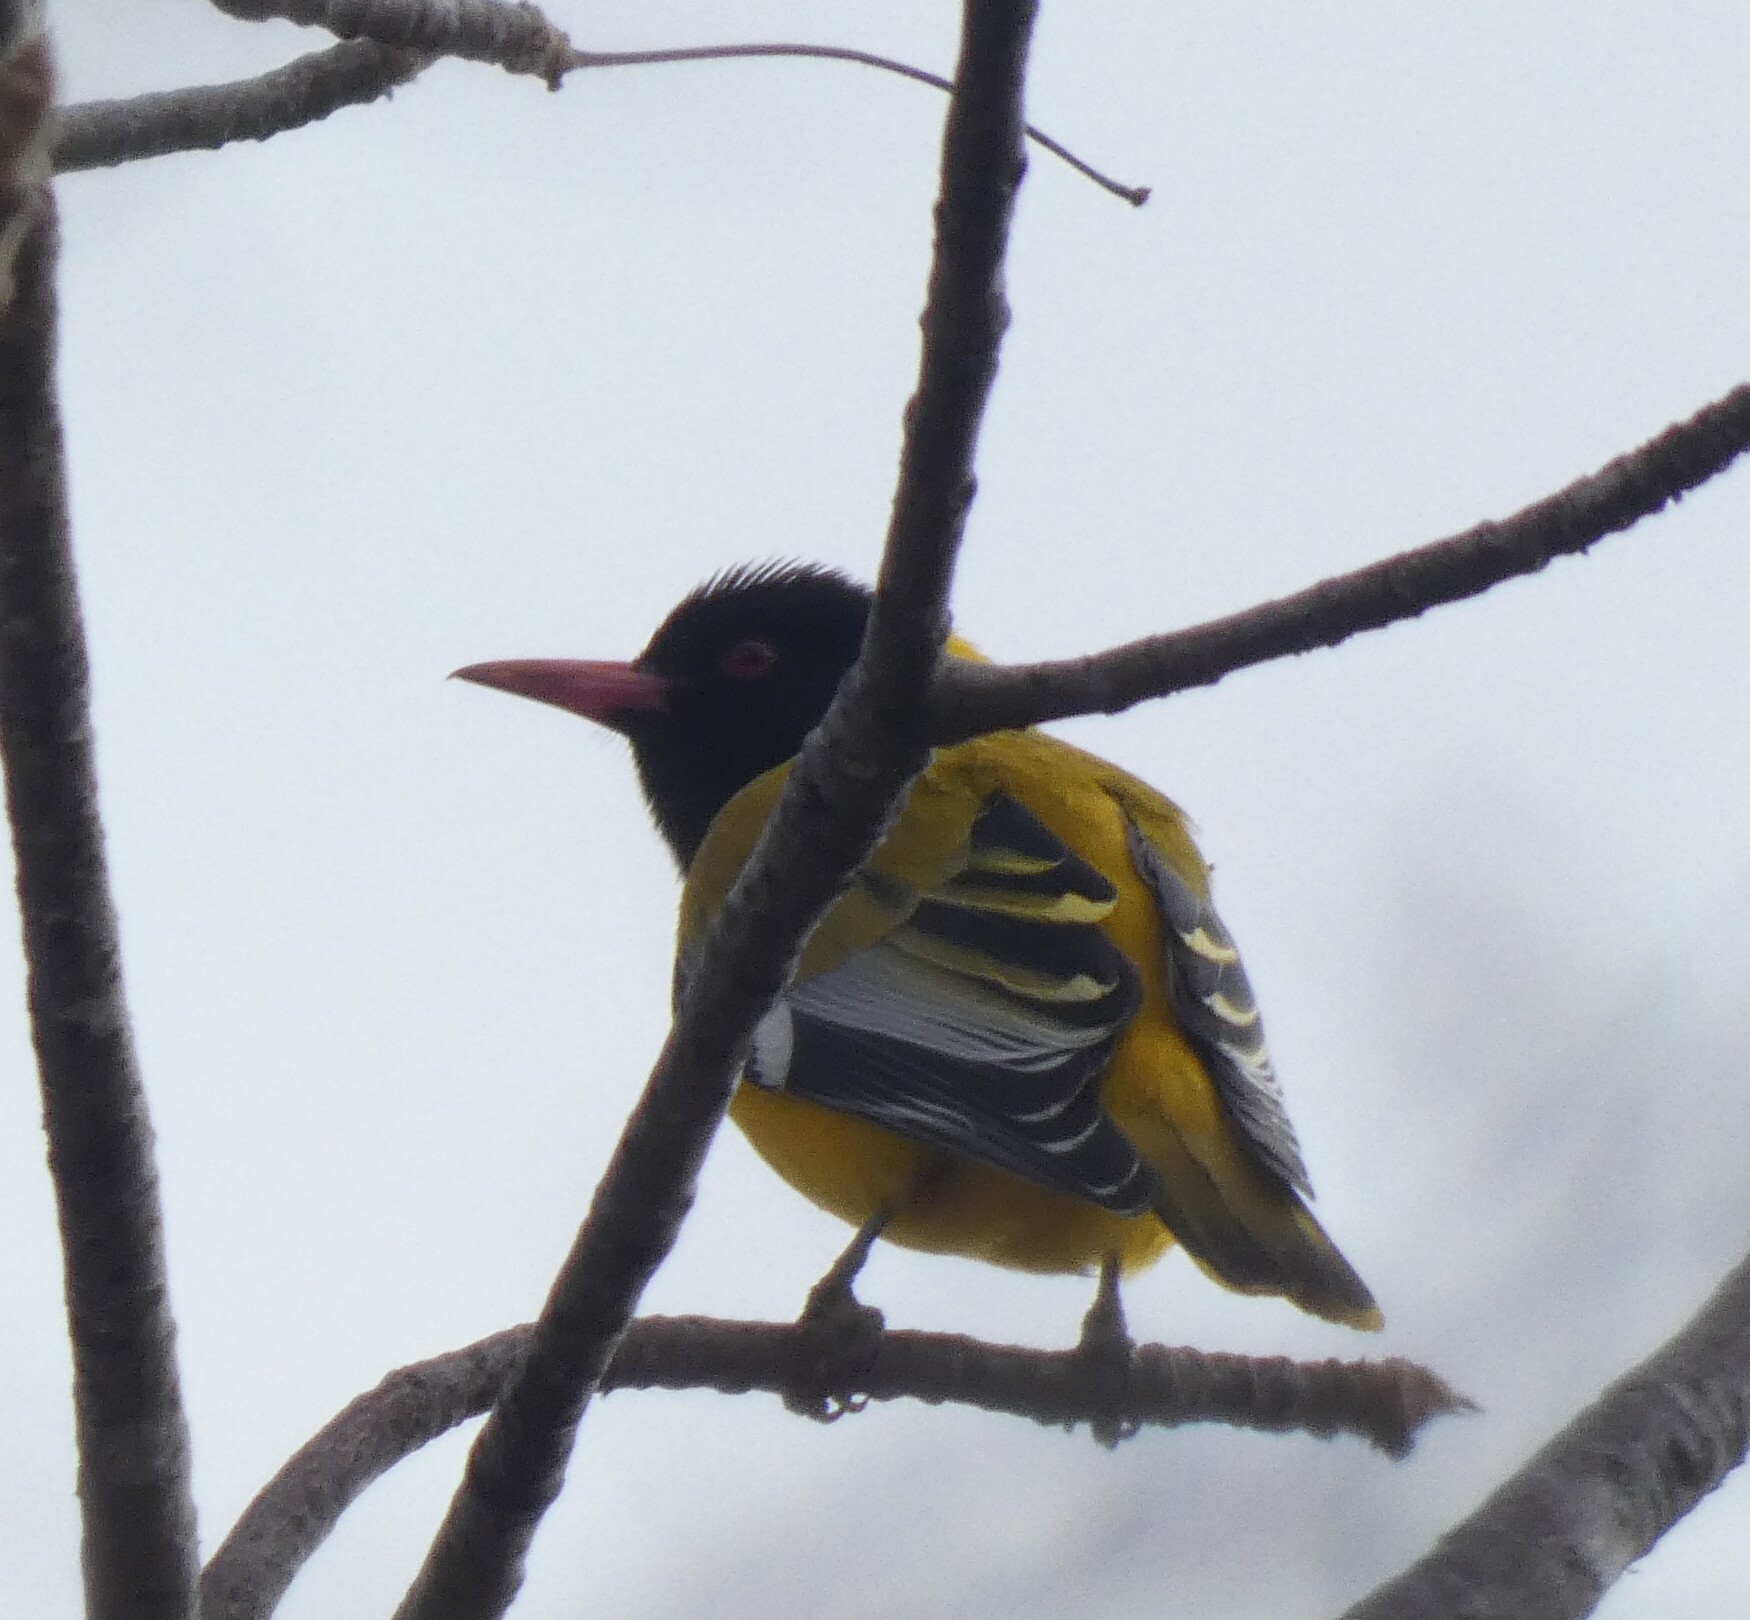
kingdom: Animalia
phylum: Chordata
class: Aves
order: Passeriformes
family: Oriolidae
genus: Oriolus
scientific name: Oriolus larvatus
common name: Black-headed oriole
